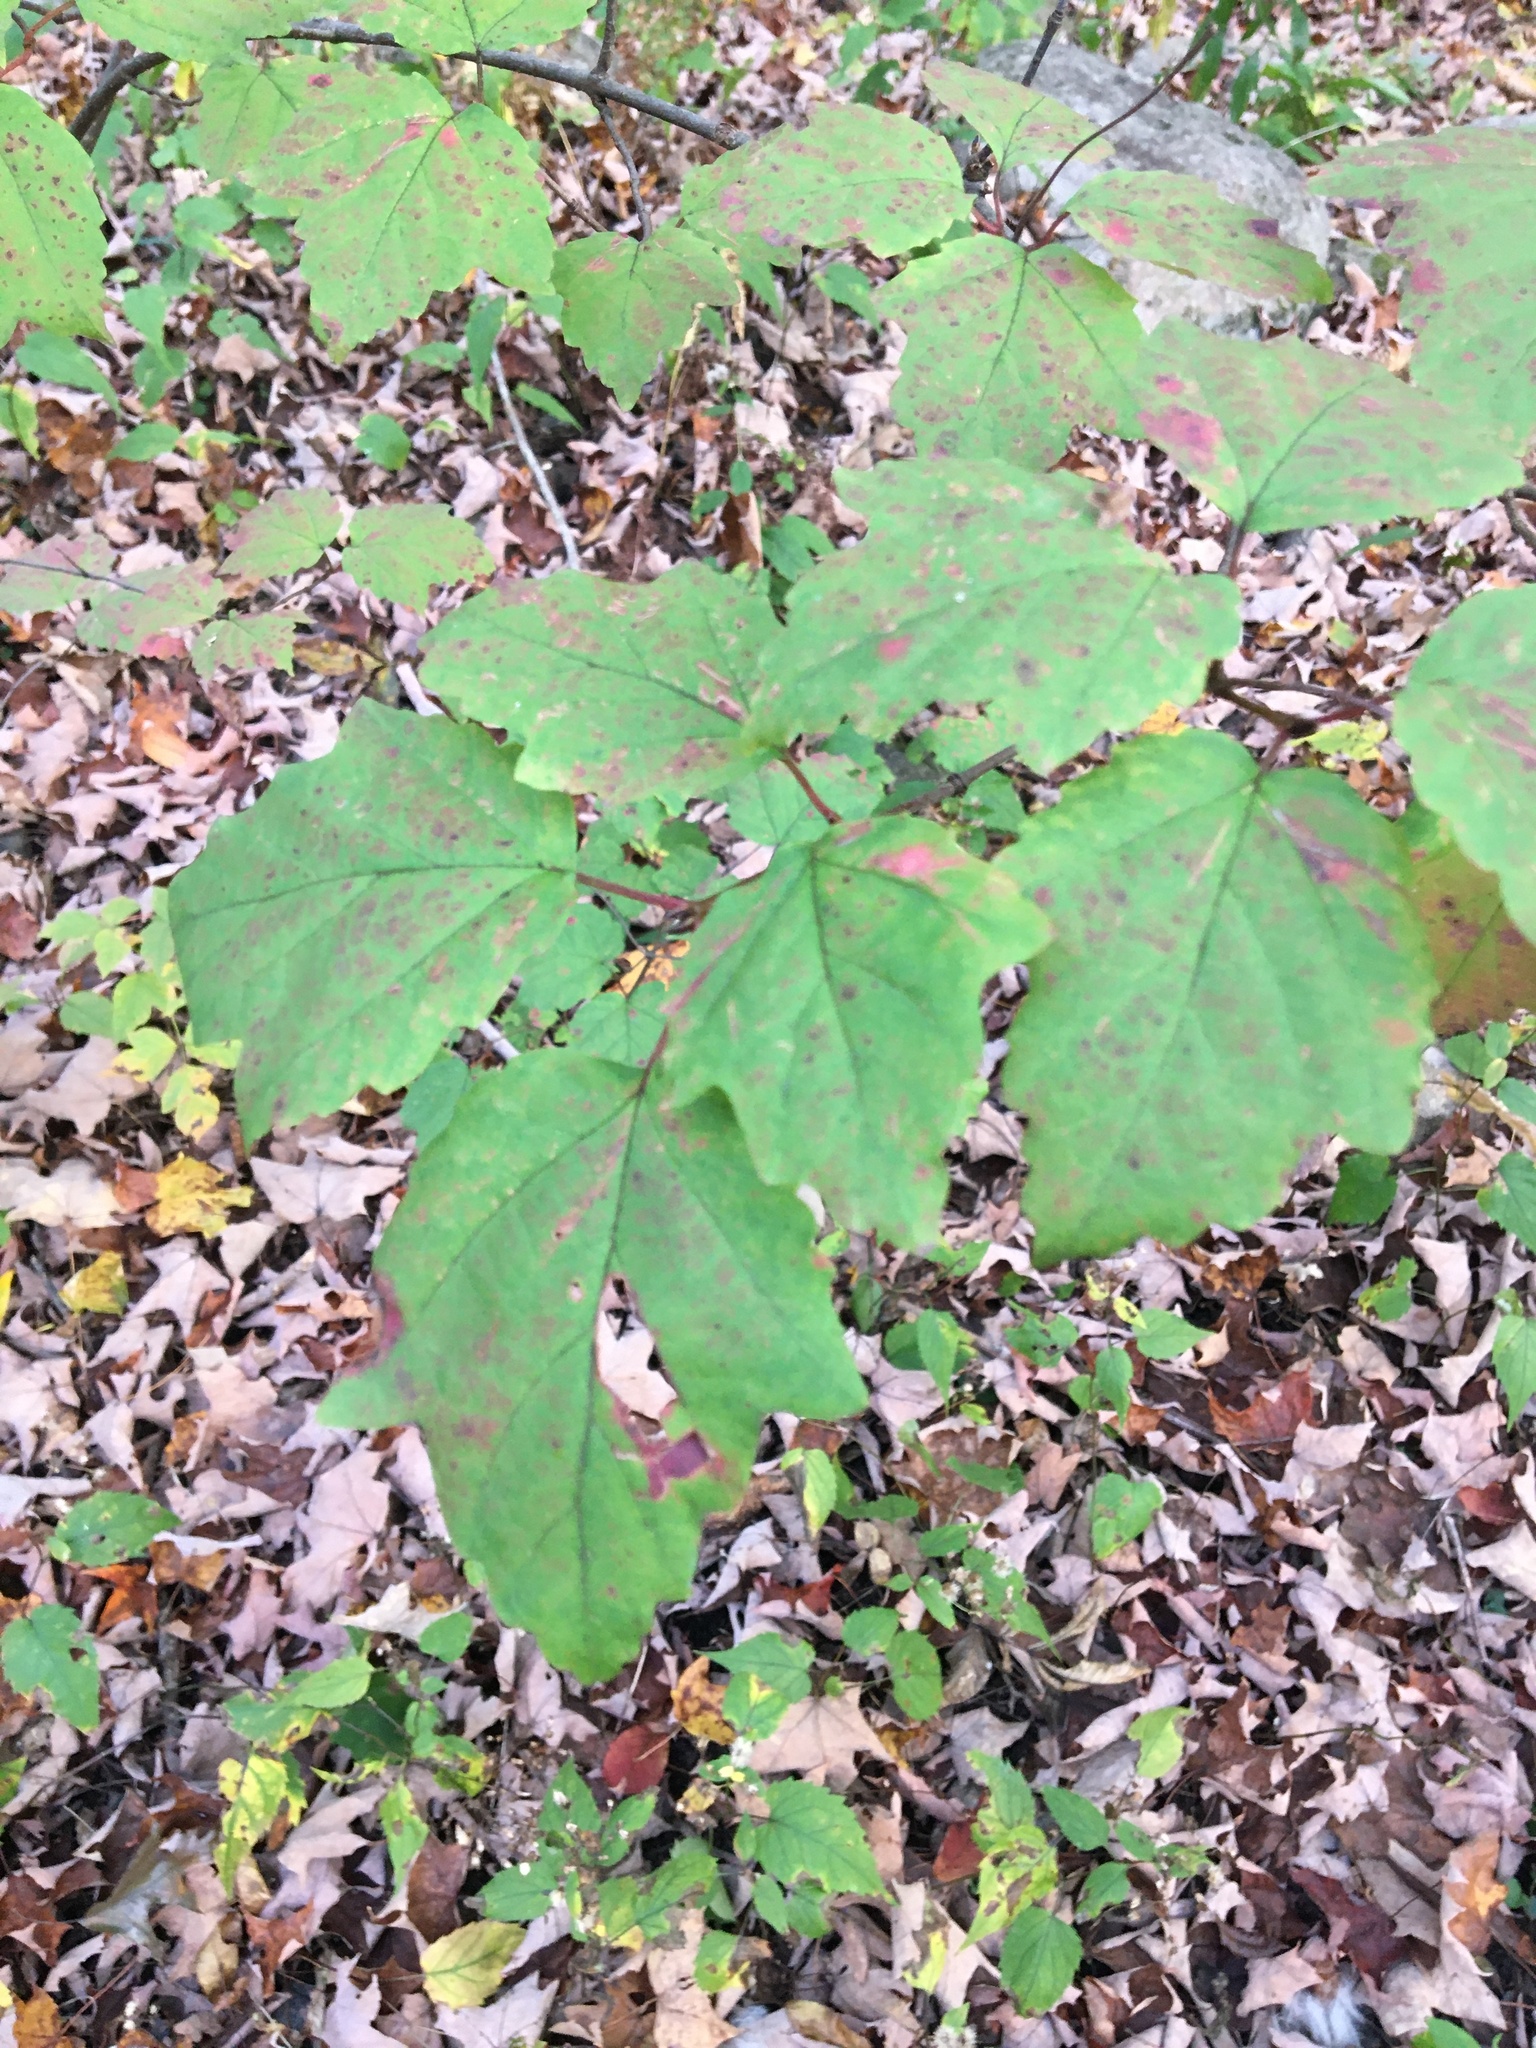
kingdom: Plantae
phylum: Tracheophyta
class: Magnoliopsida
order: Dipsacales
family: Viburnaceae
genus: Viburnum
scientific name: Viburnum acerifolium
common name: Dockmackie
